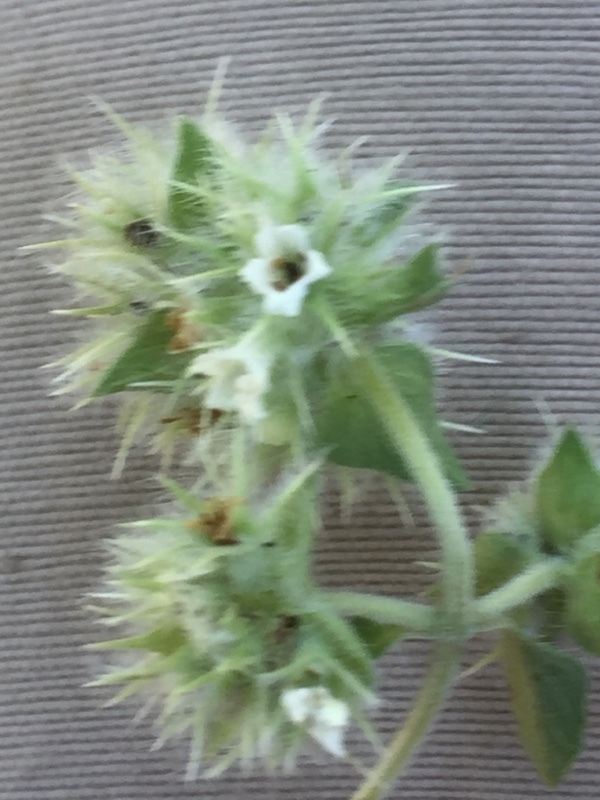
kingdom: Plantae
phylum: Tracheophyta
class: Magnoliopsida
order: Lamiales
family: Lamiaceae
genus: Thymus
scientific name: Thymus mastichina
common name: Mastic thyme
